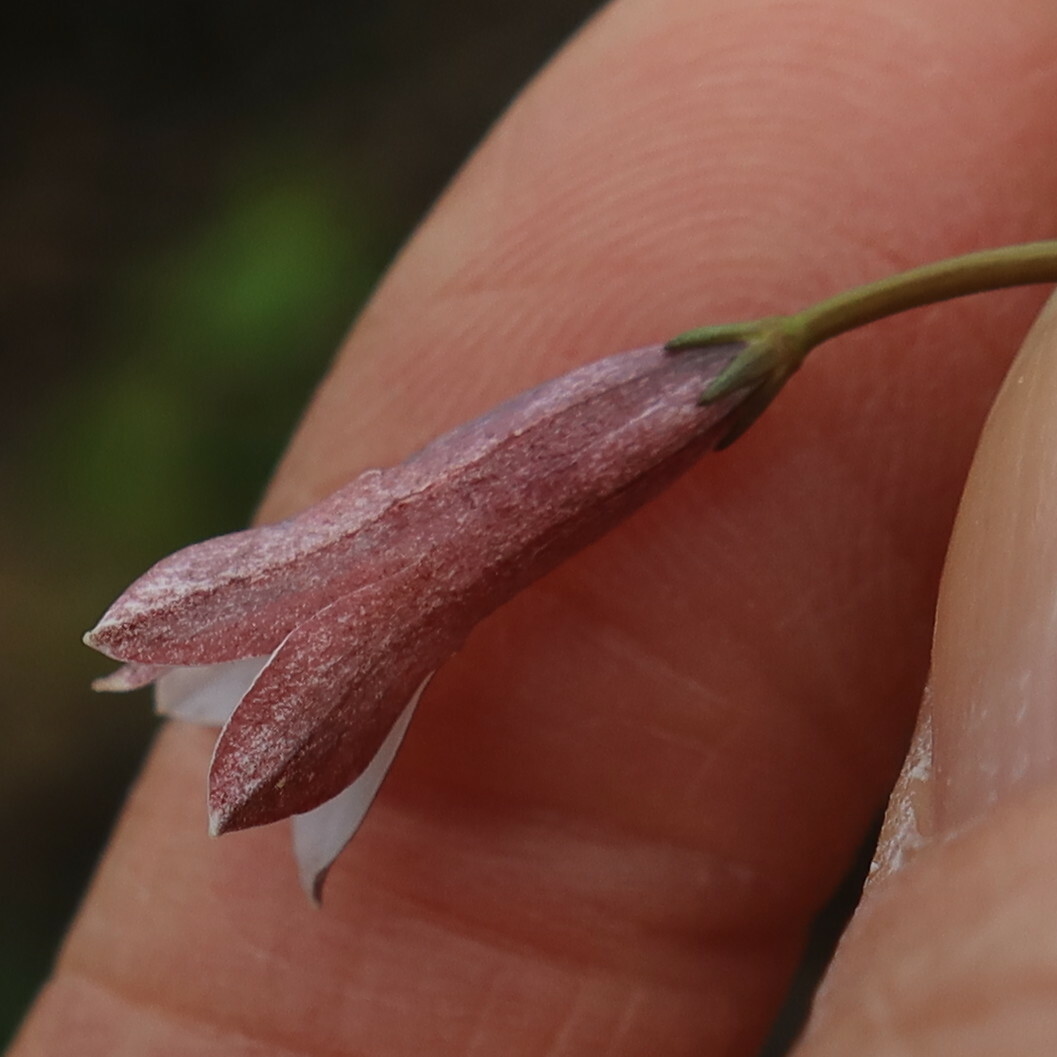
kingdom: Plantae
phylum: Tracheophyta
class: Magnoliopsida
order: Asterales
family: Campanulaceae
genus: Prismatocarpus
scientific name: Prismatocarpus fruticosus
